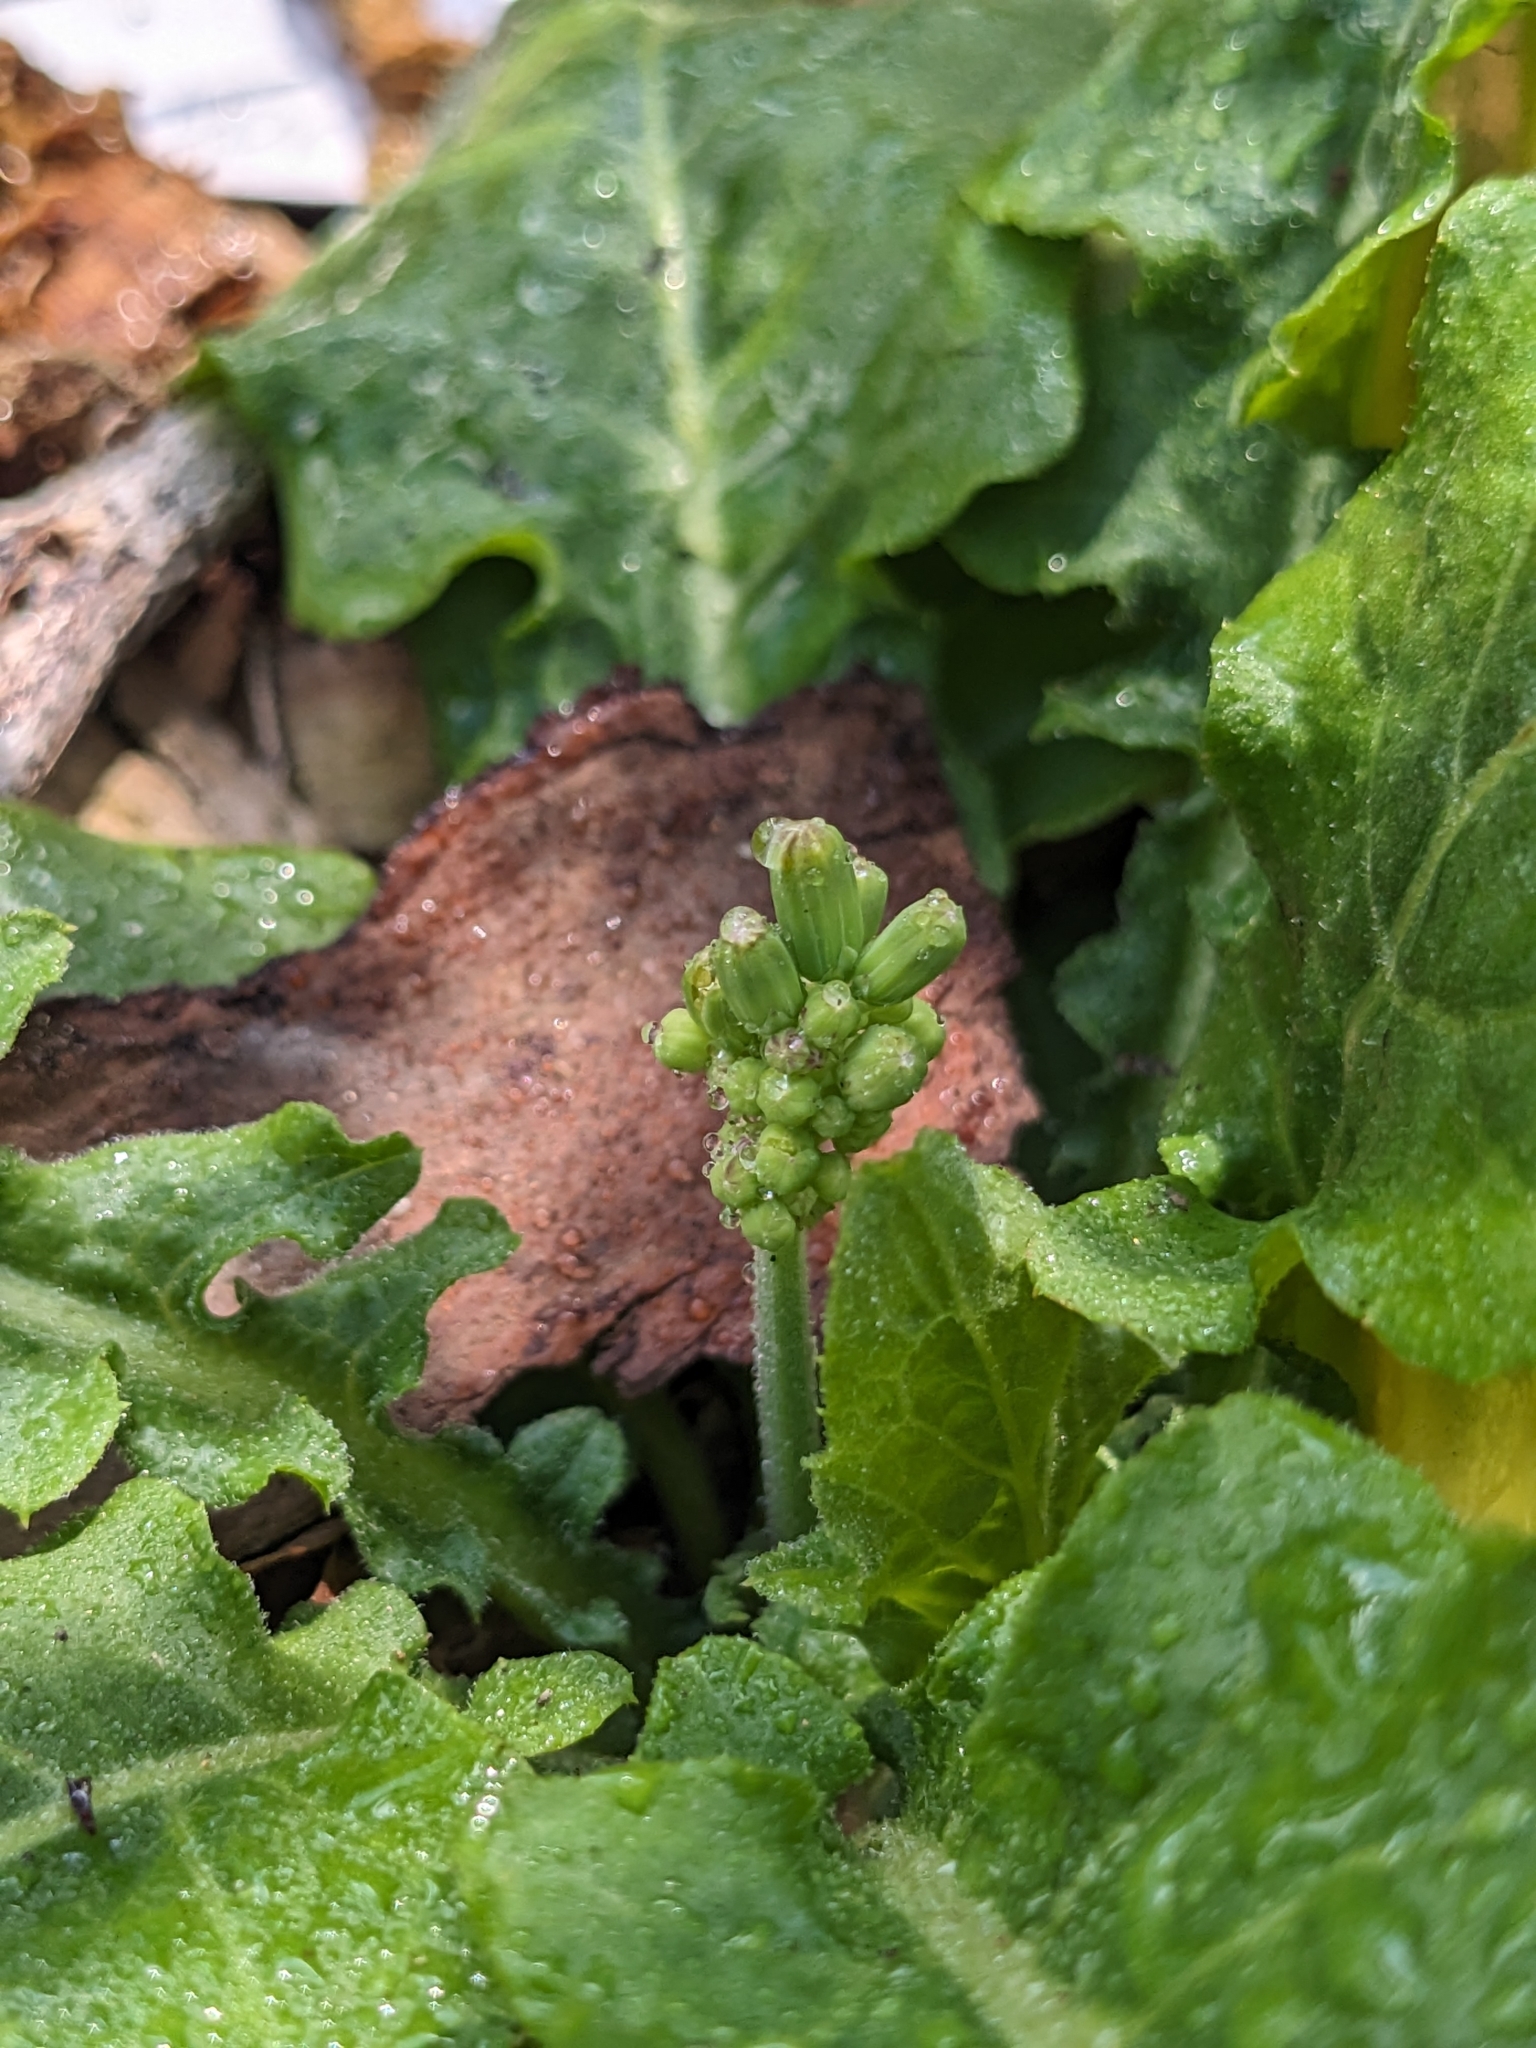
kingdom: Plantae
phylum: Tracheophyta
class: Magnoliopsida
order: Asterales
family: Asteraceae
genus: Youngia
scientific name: Youngia japonica
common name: Oriental false hawksbeard
